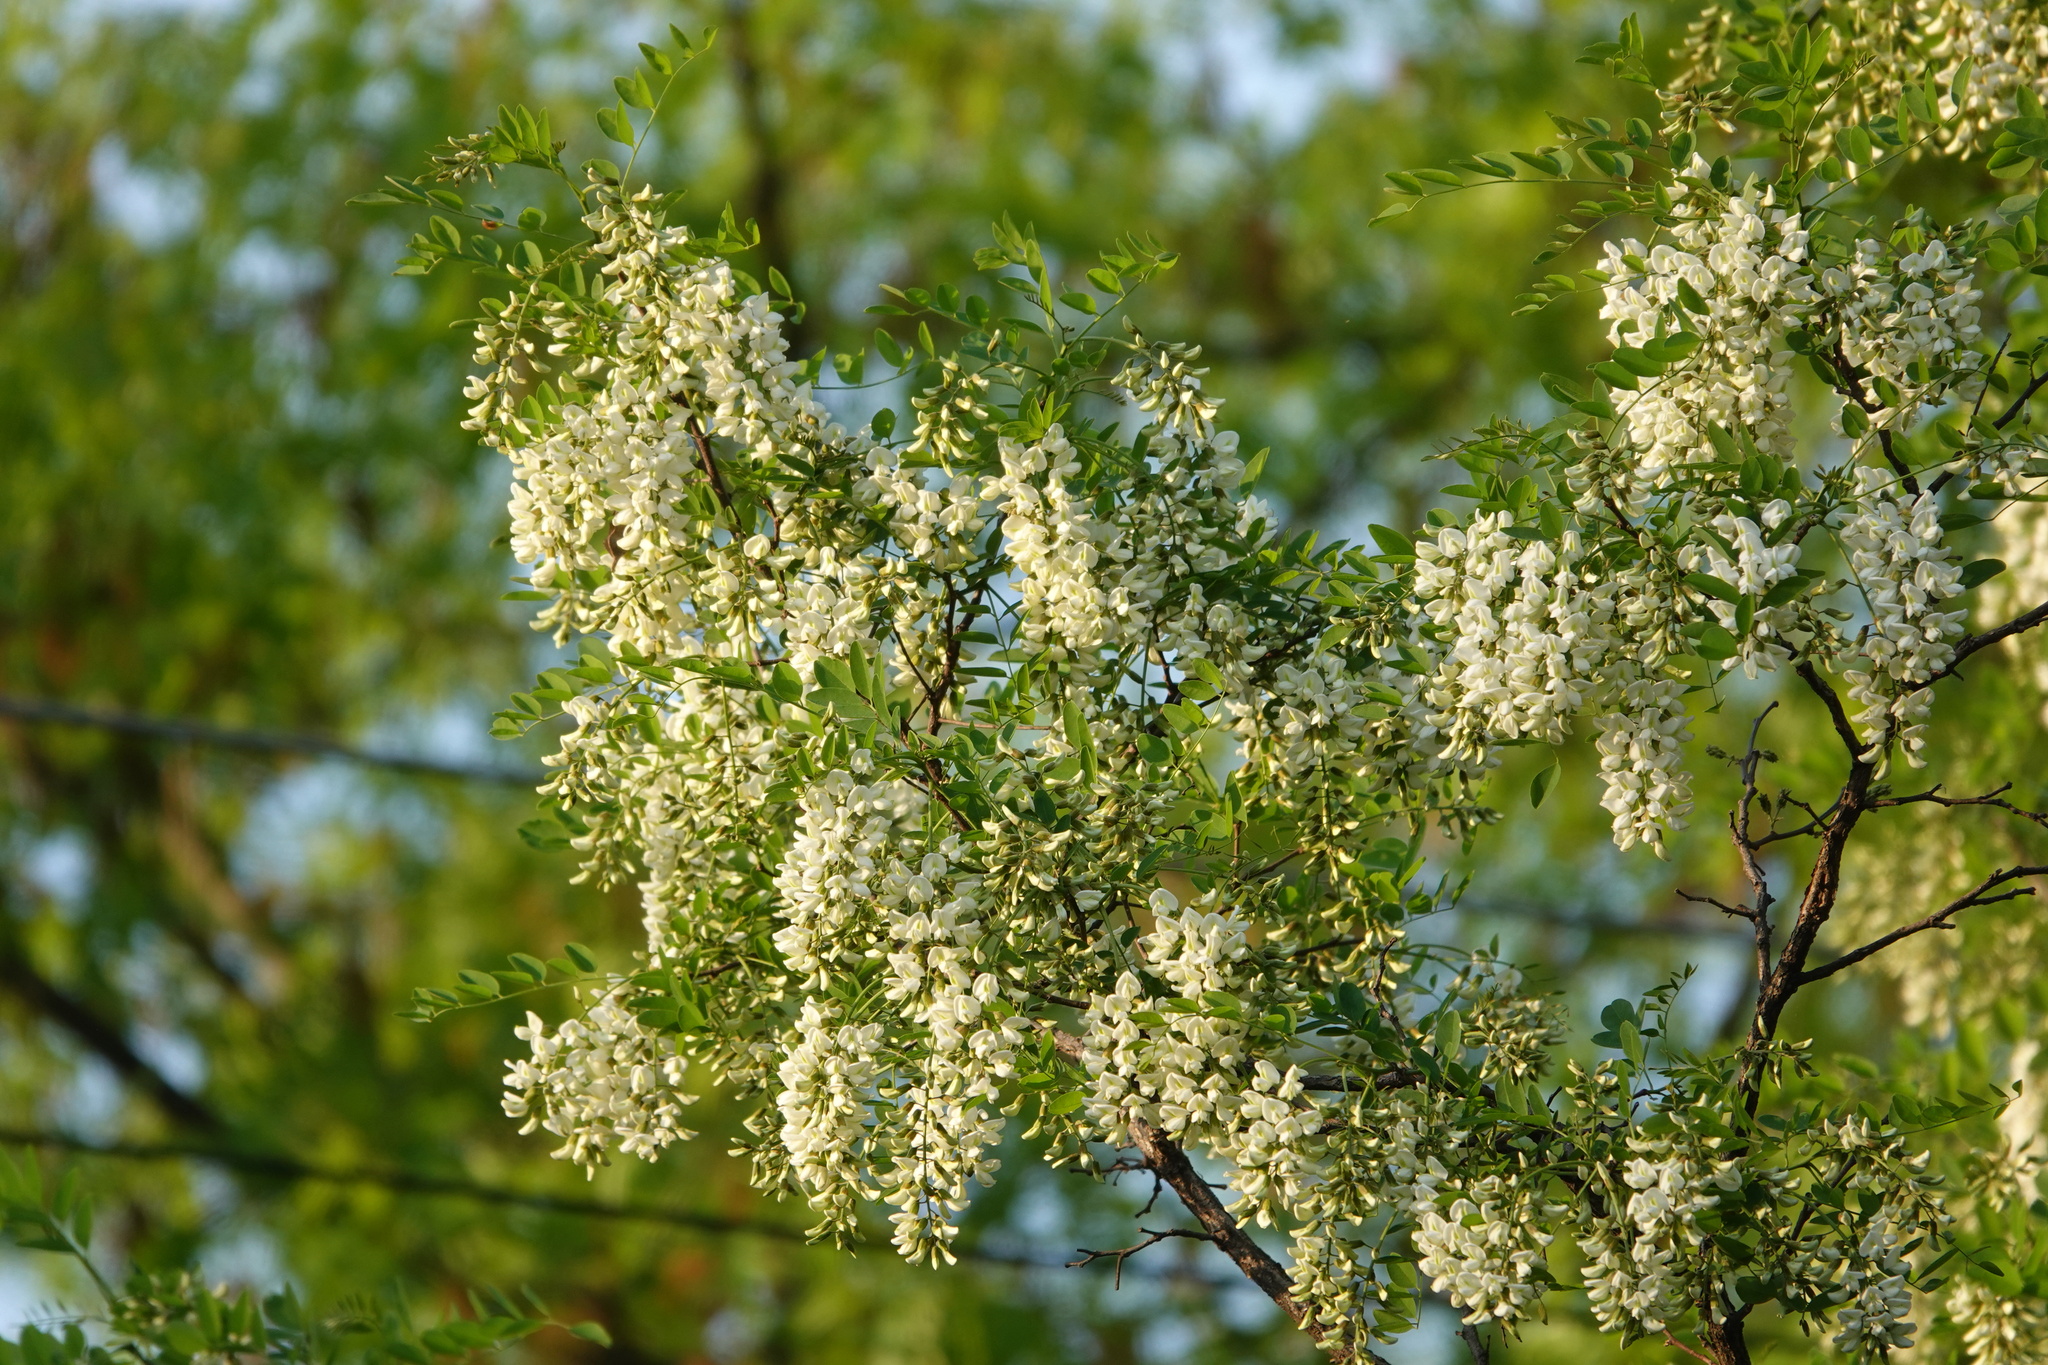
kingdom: Plantae
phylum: Tracheophyta
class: Magnoliopsida
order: Fabales
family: Fabaceae
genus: Robinia
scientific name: Robinia pseudoacacia
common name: Black locust
